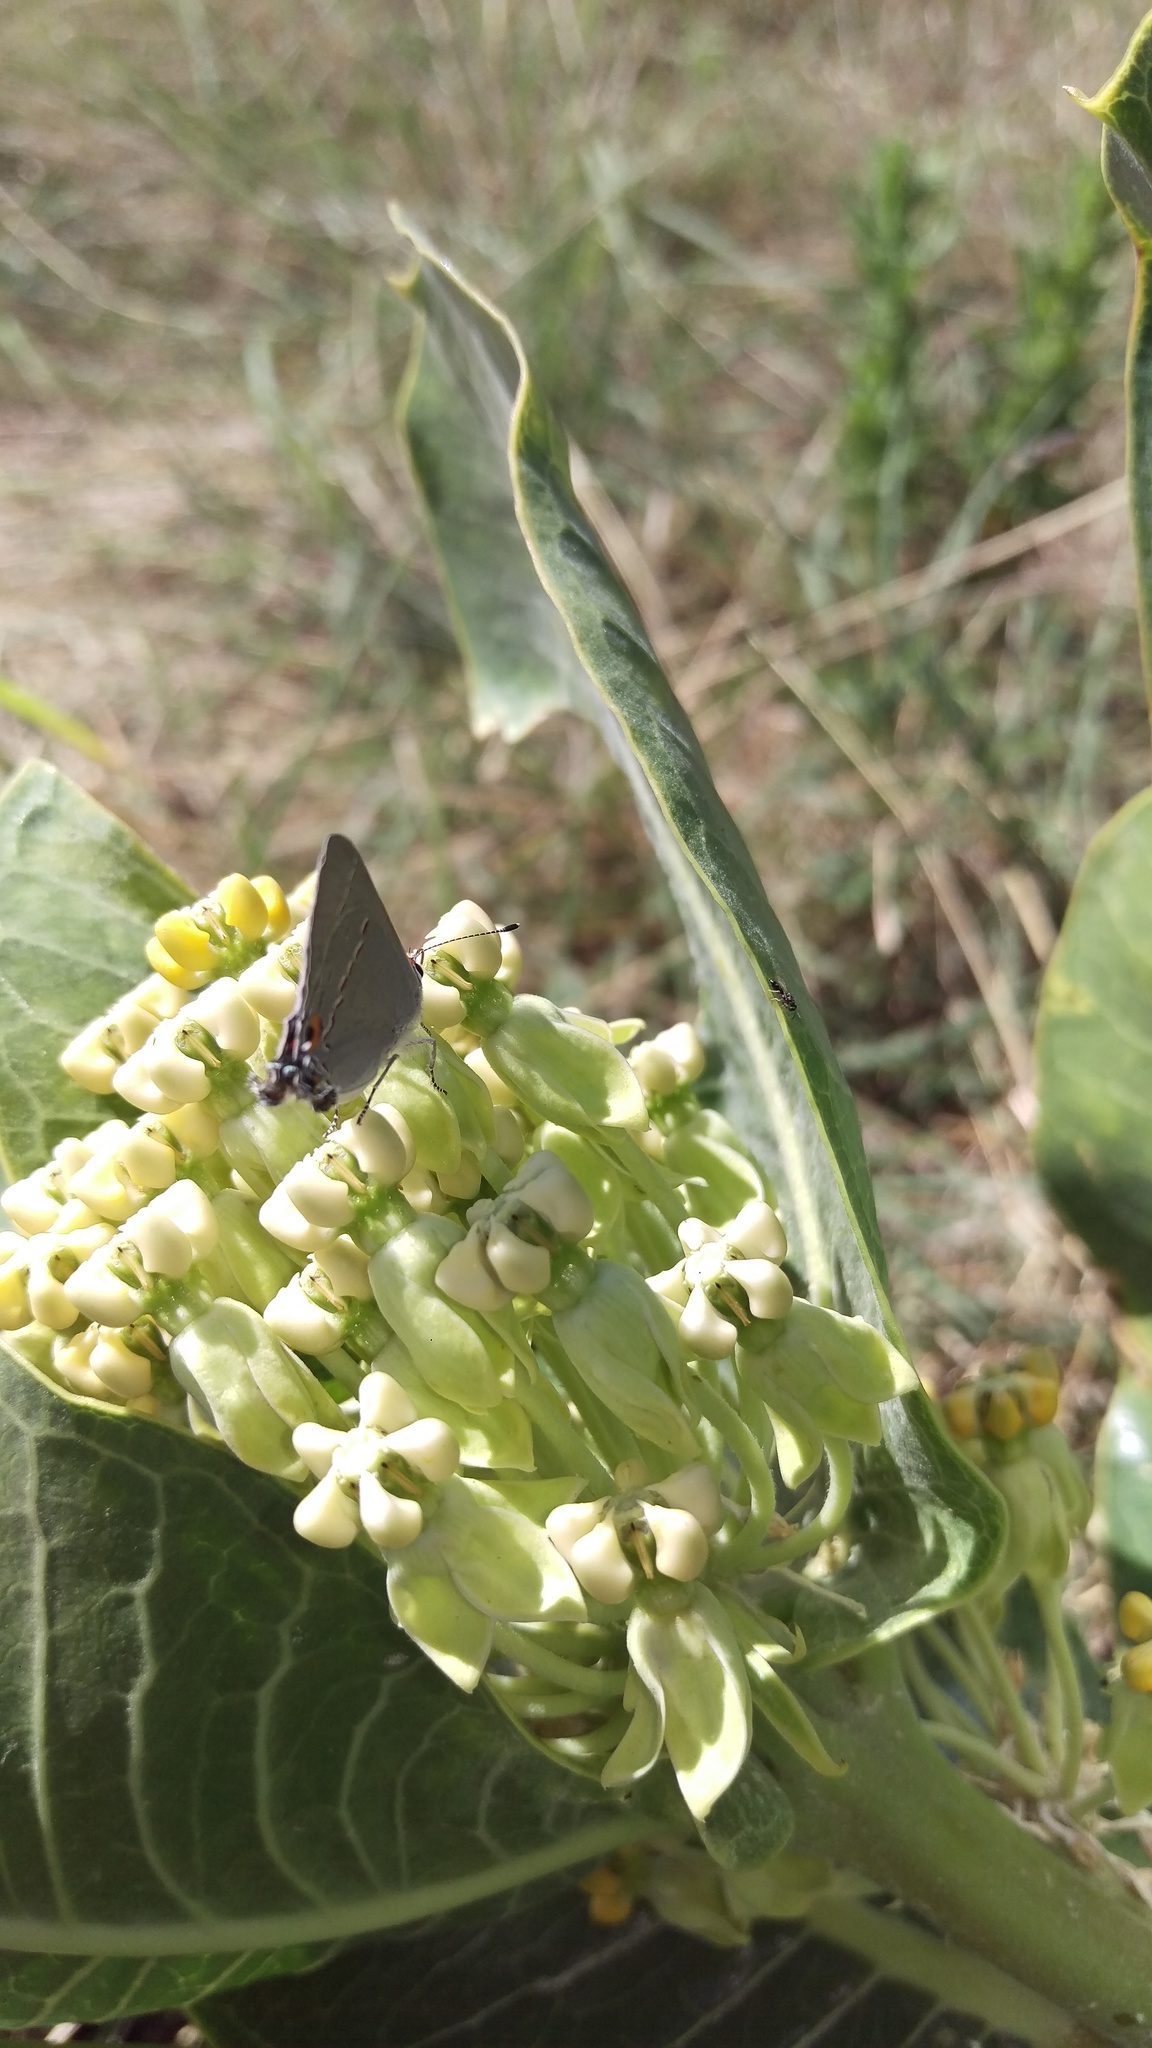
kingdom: Animalia
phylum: Arthropoda
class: Insecta
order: Lepidoptera
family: Lycaenidae
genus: Strymon
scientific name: Strymon melinus
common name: Gray hairstreak
